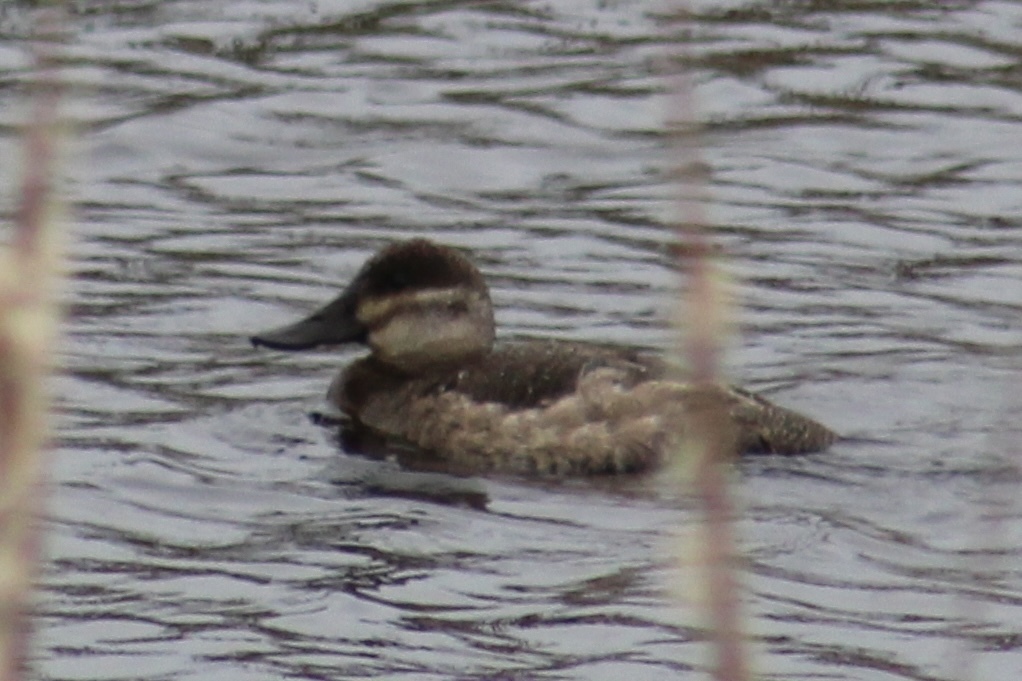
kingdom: Animalia
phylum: Chordata
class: Aves
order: Anseriformes
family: Anatidae
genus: Oxyura
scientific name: Oxyura jamaicensis
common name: Ruddy duck
